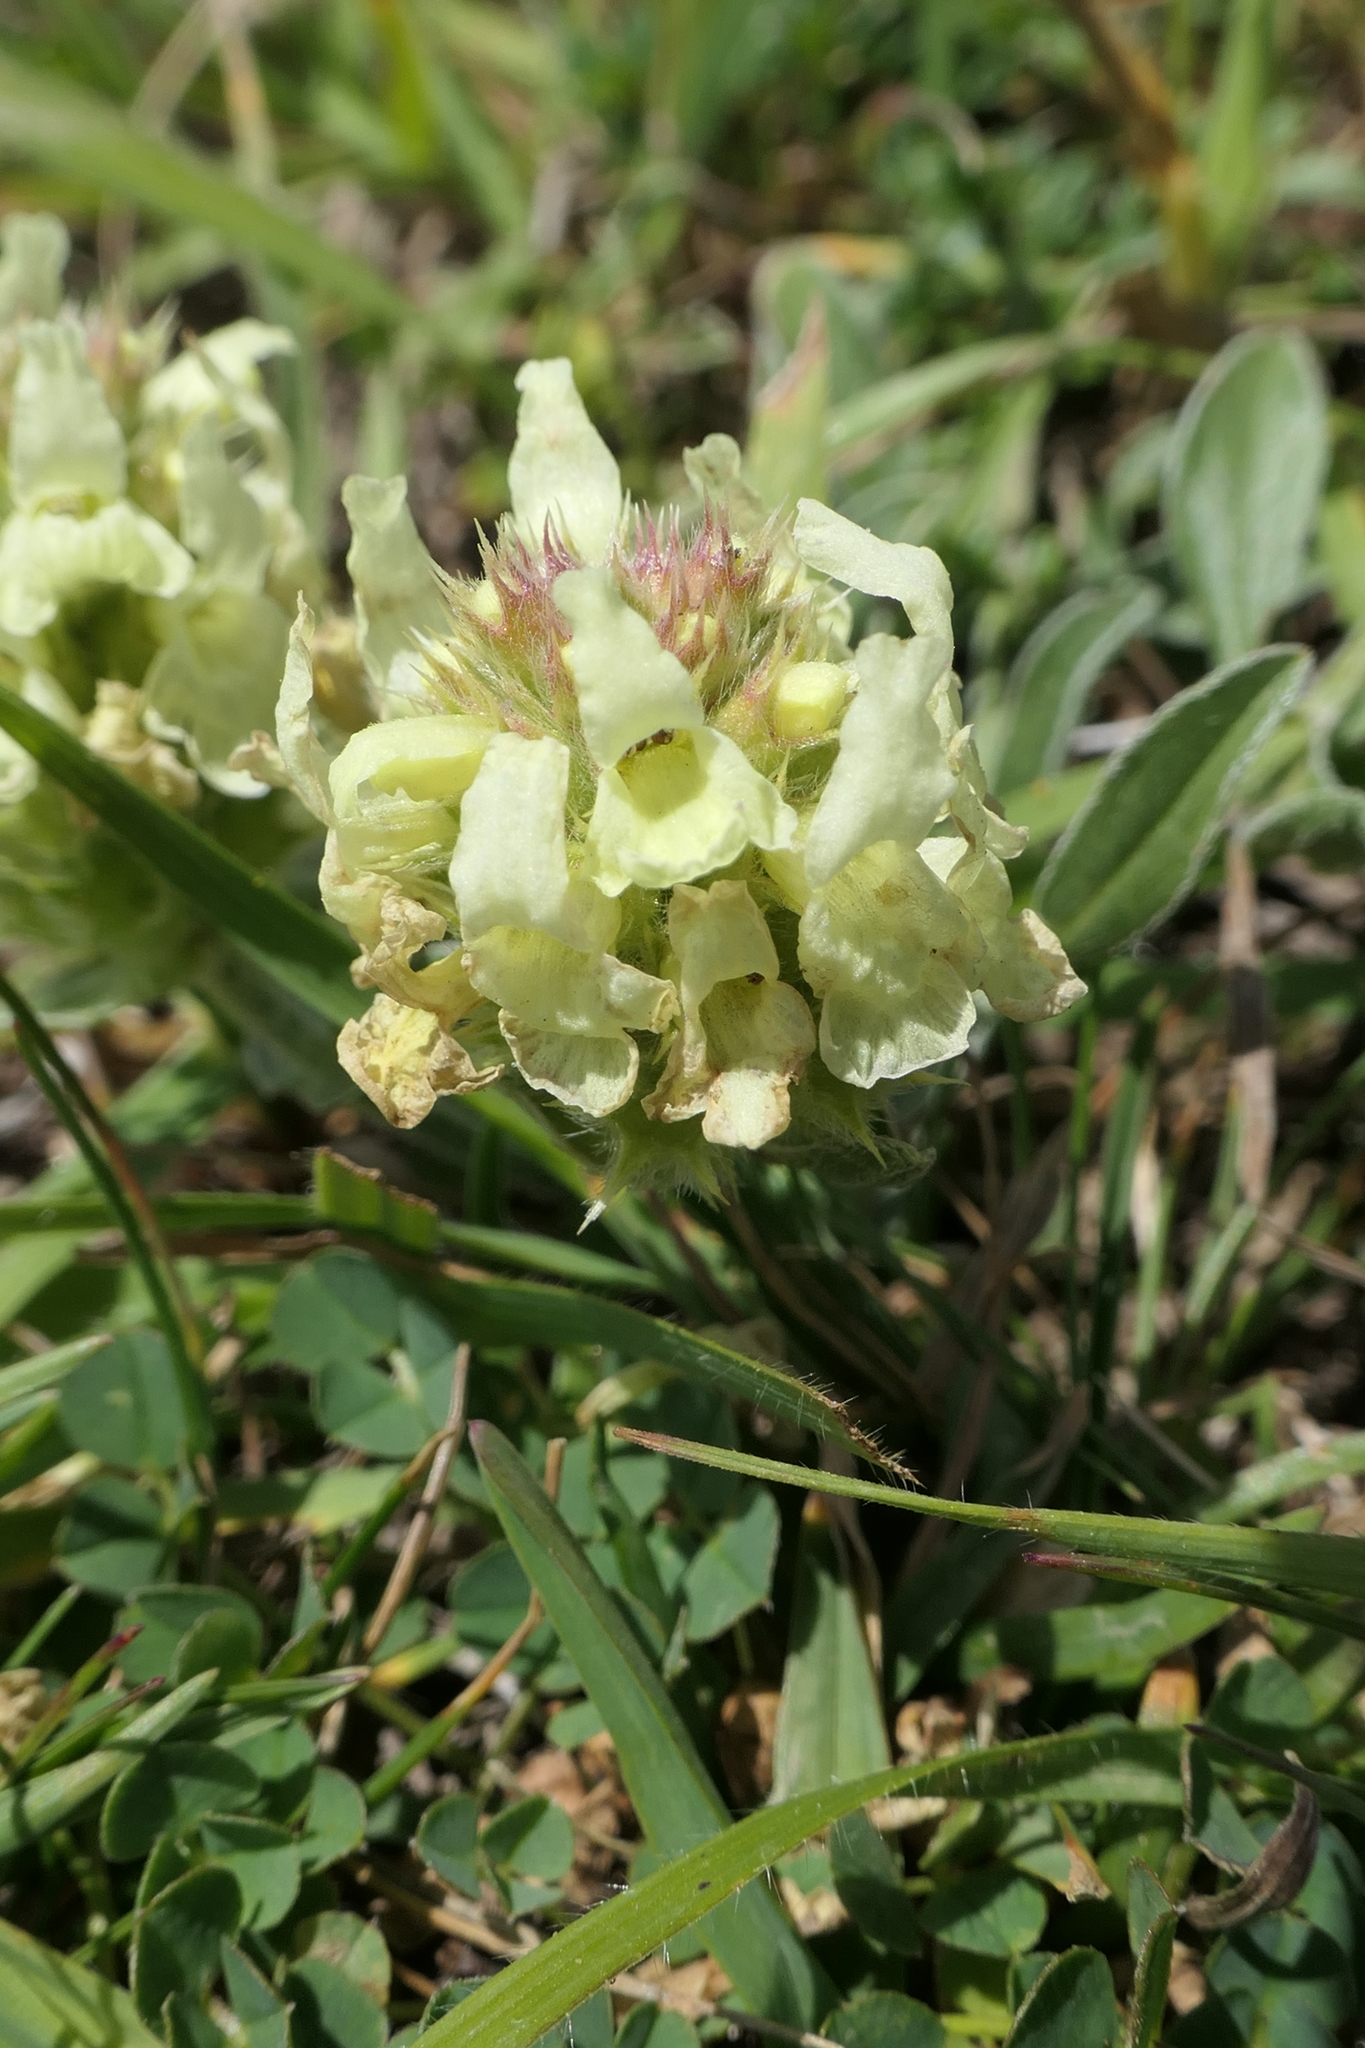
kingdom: Plantae
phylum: Tracheophyta
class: Magnoliopsida
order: Lamiales
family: Lamiaceae
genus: Sideritis
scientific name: Sideritis hyssopifolia
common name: Mountain tea
